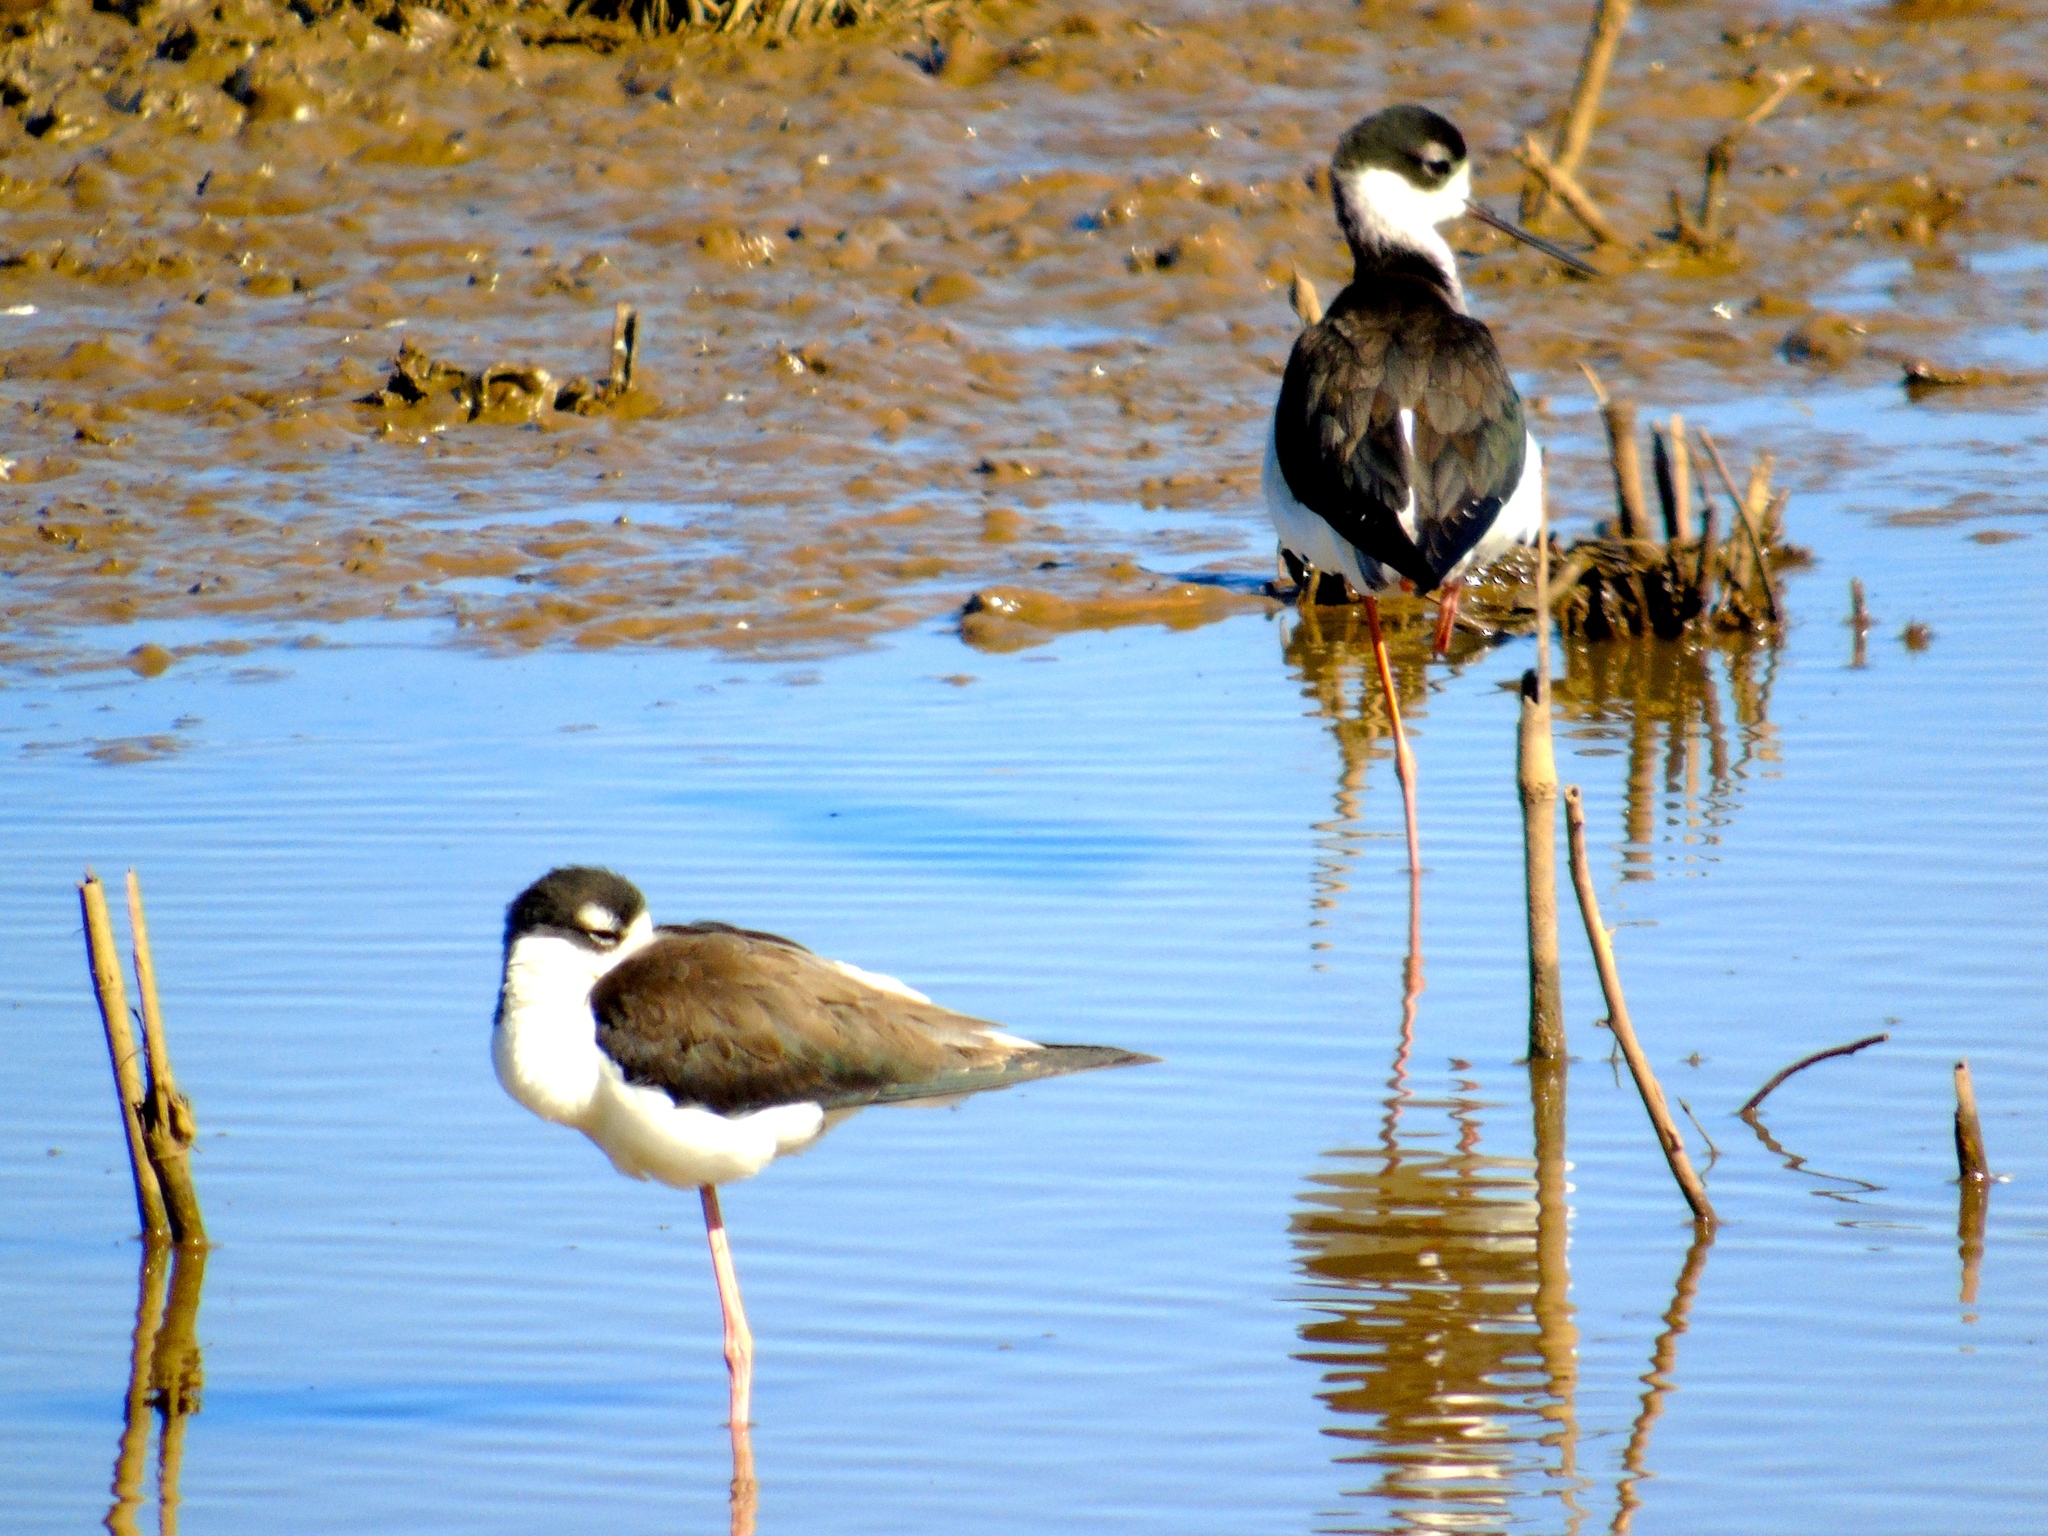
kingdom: Animalia
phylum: Chordata
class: Aves
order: Charadriiformes
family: Recurvirostridae
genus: Himantopus
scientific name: Himantopus mexicanus
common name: Black-necked stilt
